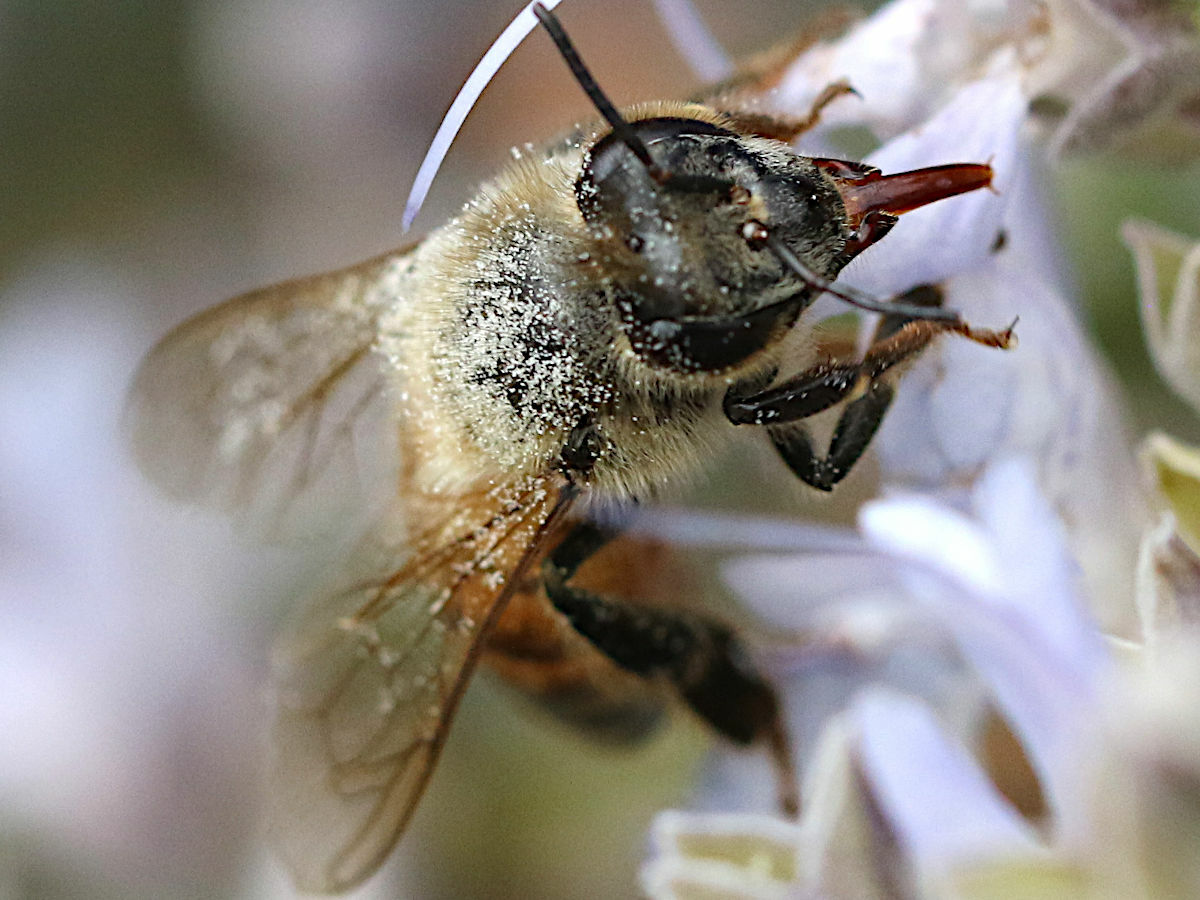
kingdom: Animalia
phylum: Arthropoda
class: Insecta
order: Hymenoptera
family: Apidae
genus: Apis
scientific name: Apis mellifera
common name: Honey bee
